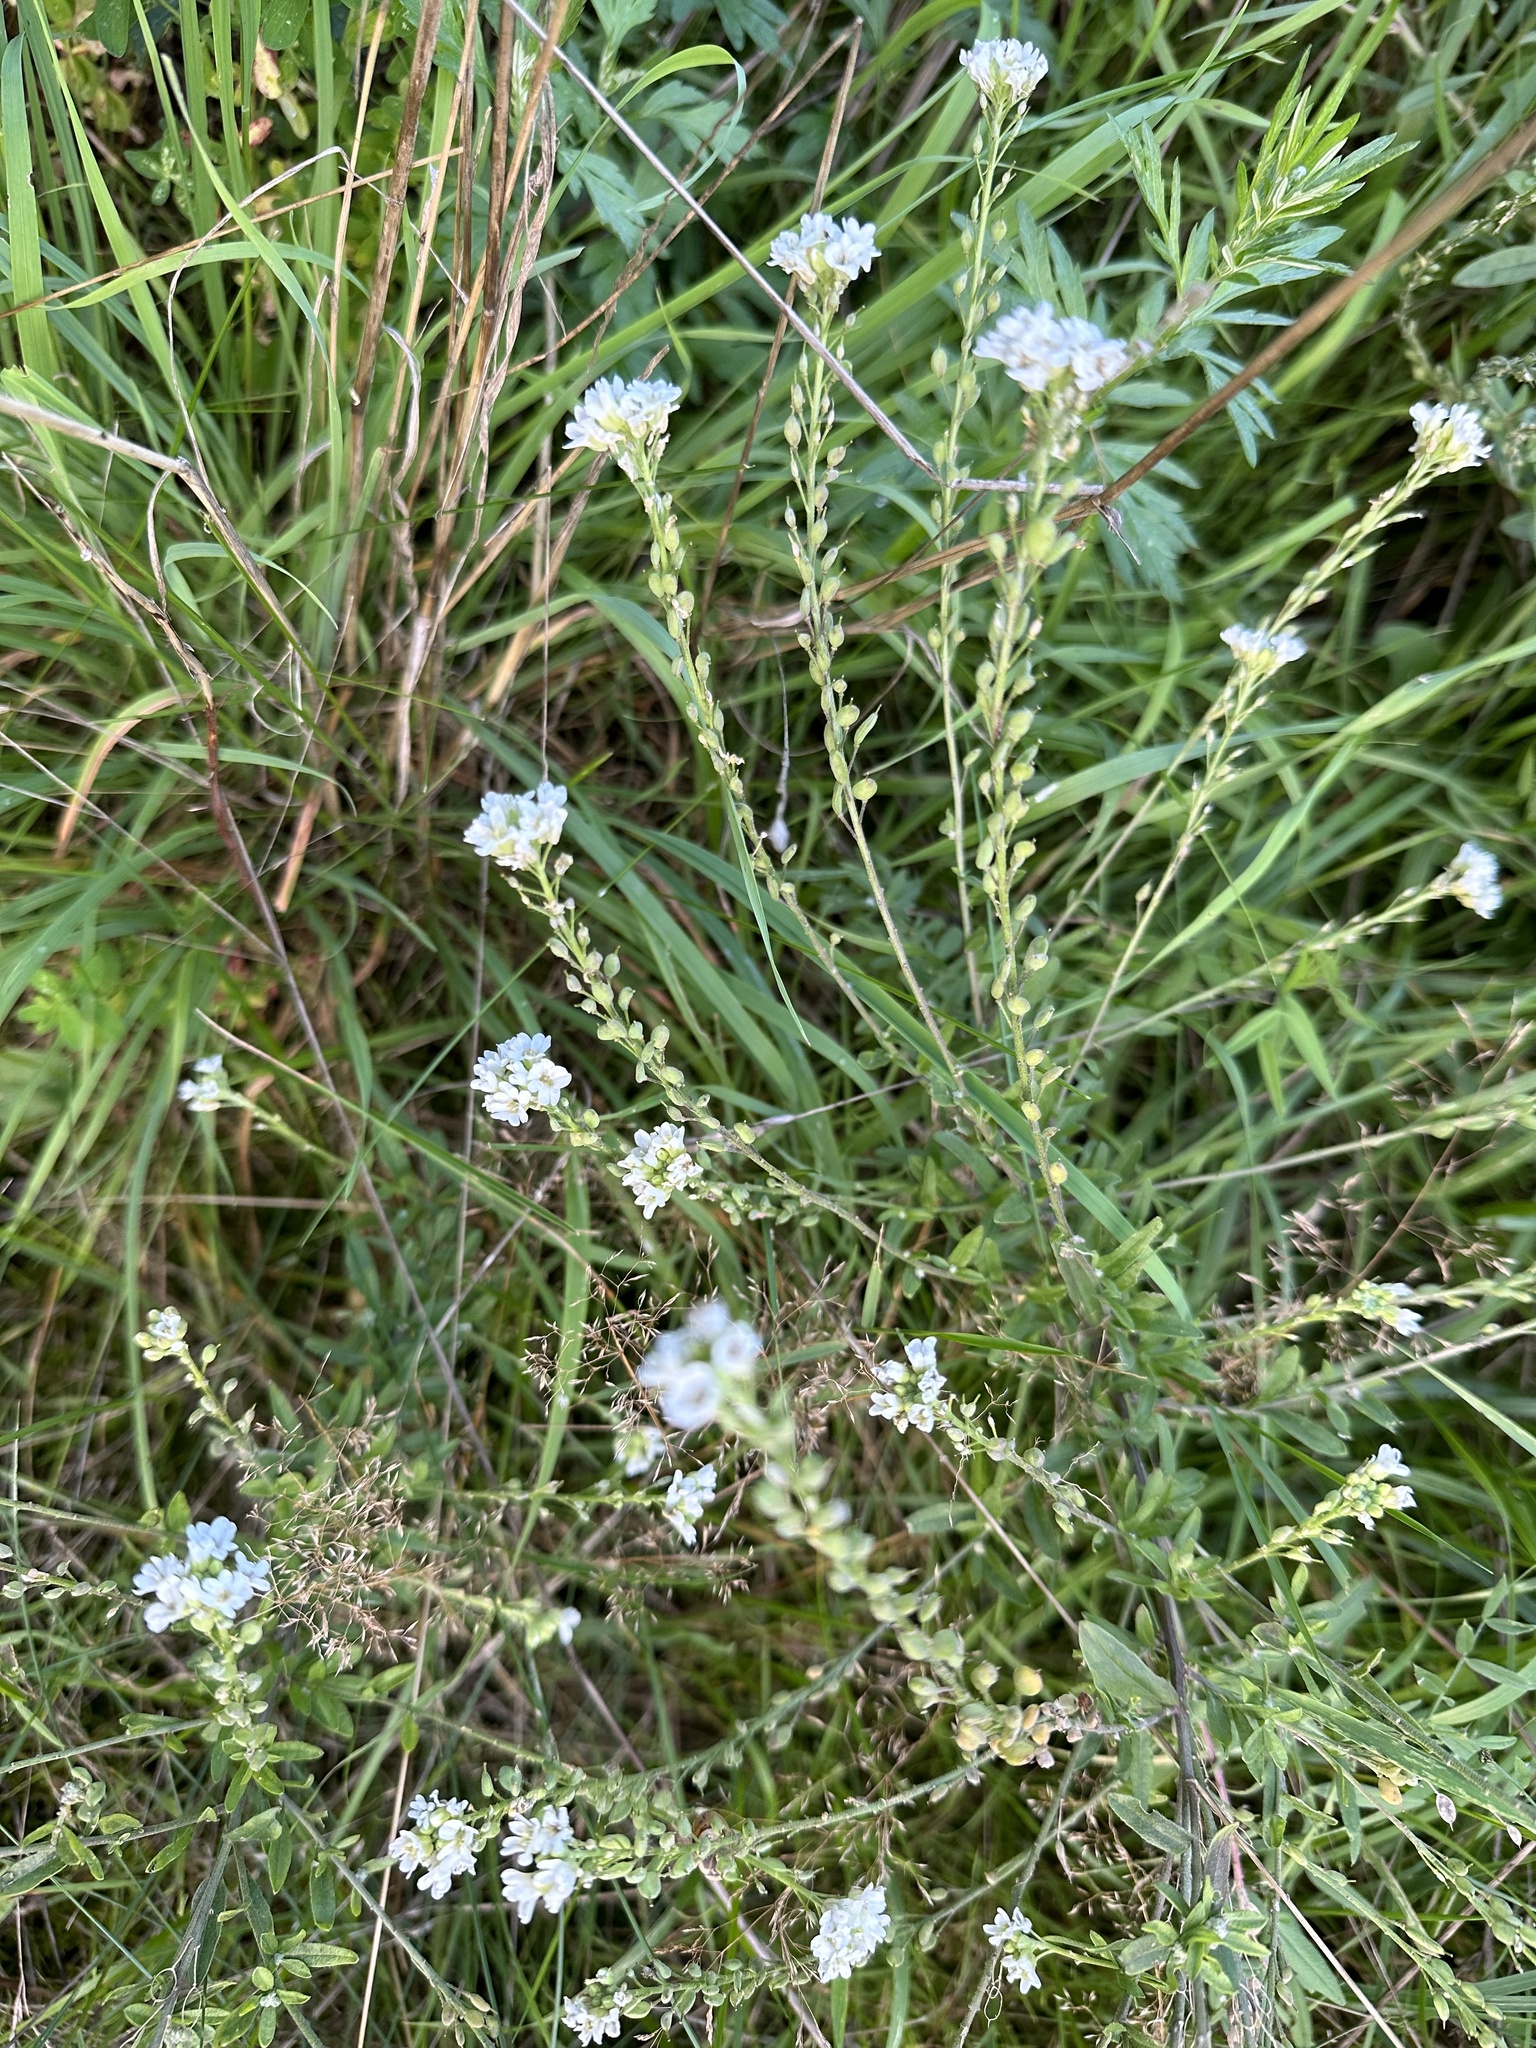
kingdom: Plantae
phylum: Tracheophyta
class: Magnoliopsida
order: Brassicales
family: Brassicaceae
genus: Berteroa
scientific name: Berteroa incana
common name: Hoary alison
